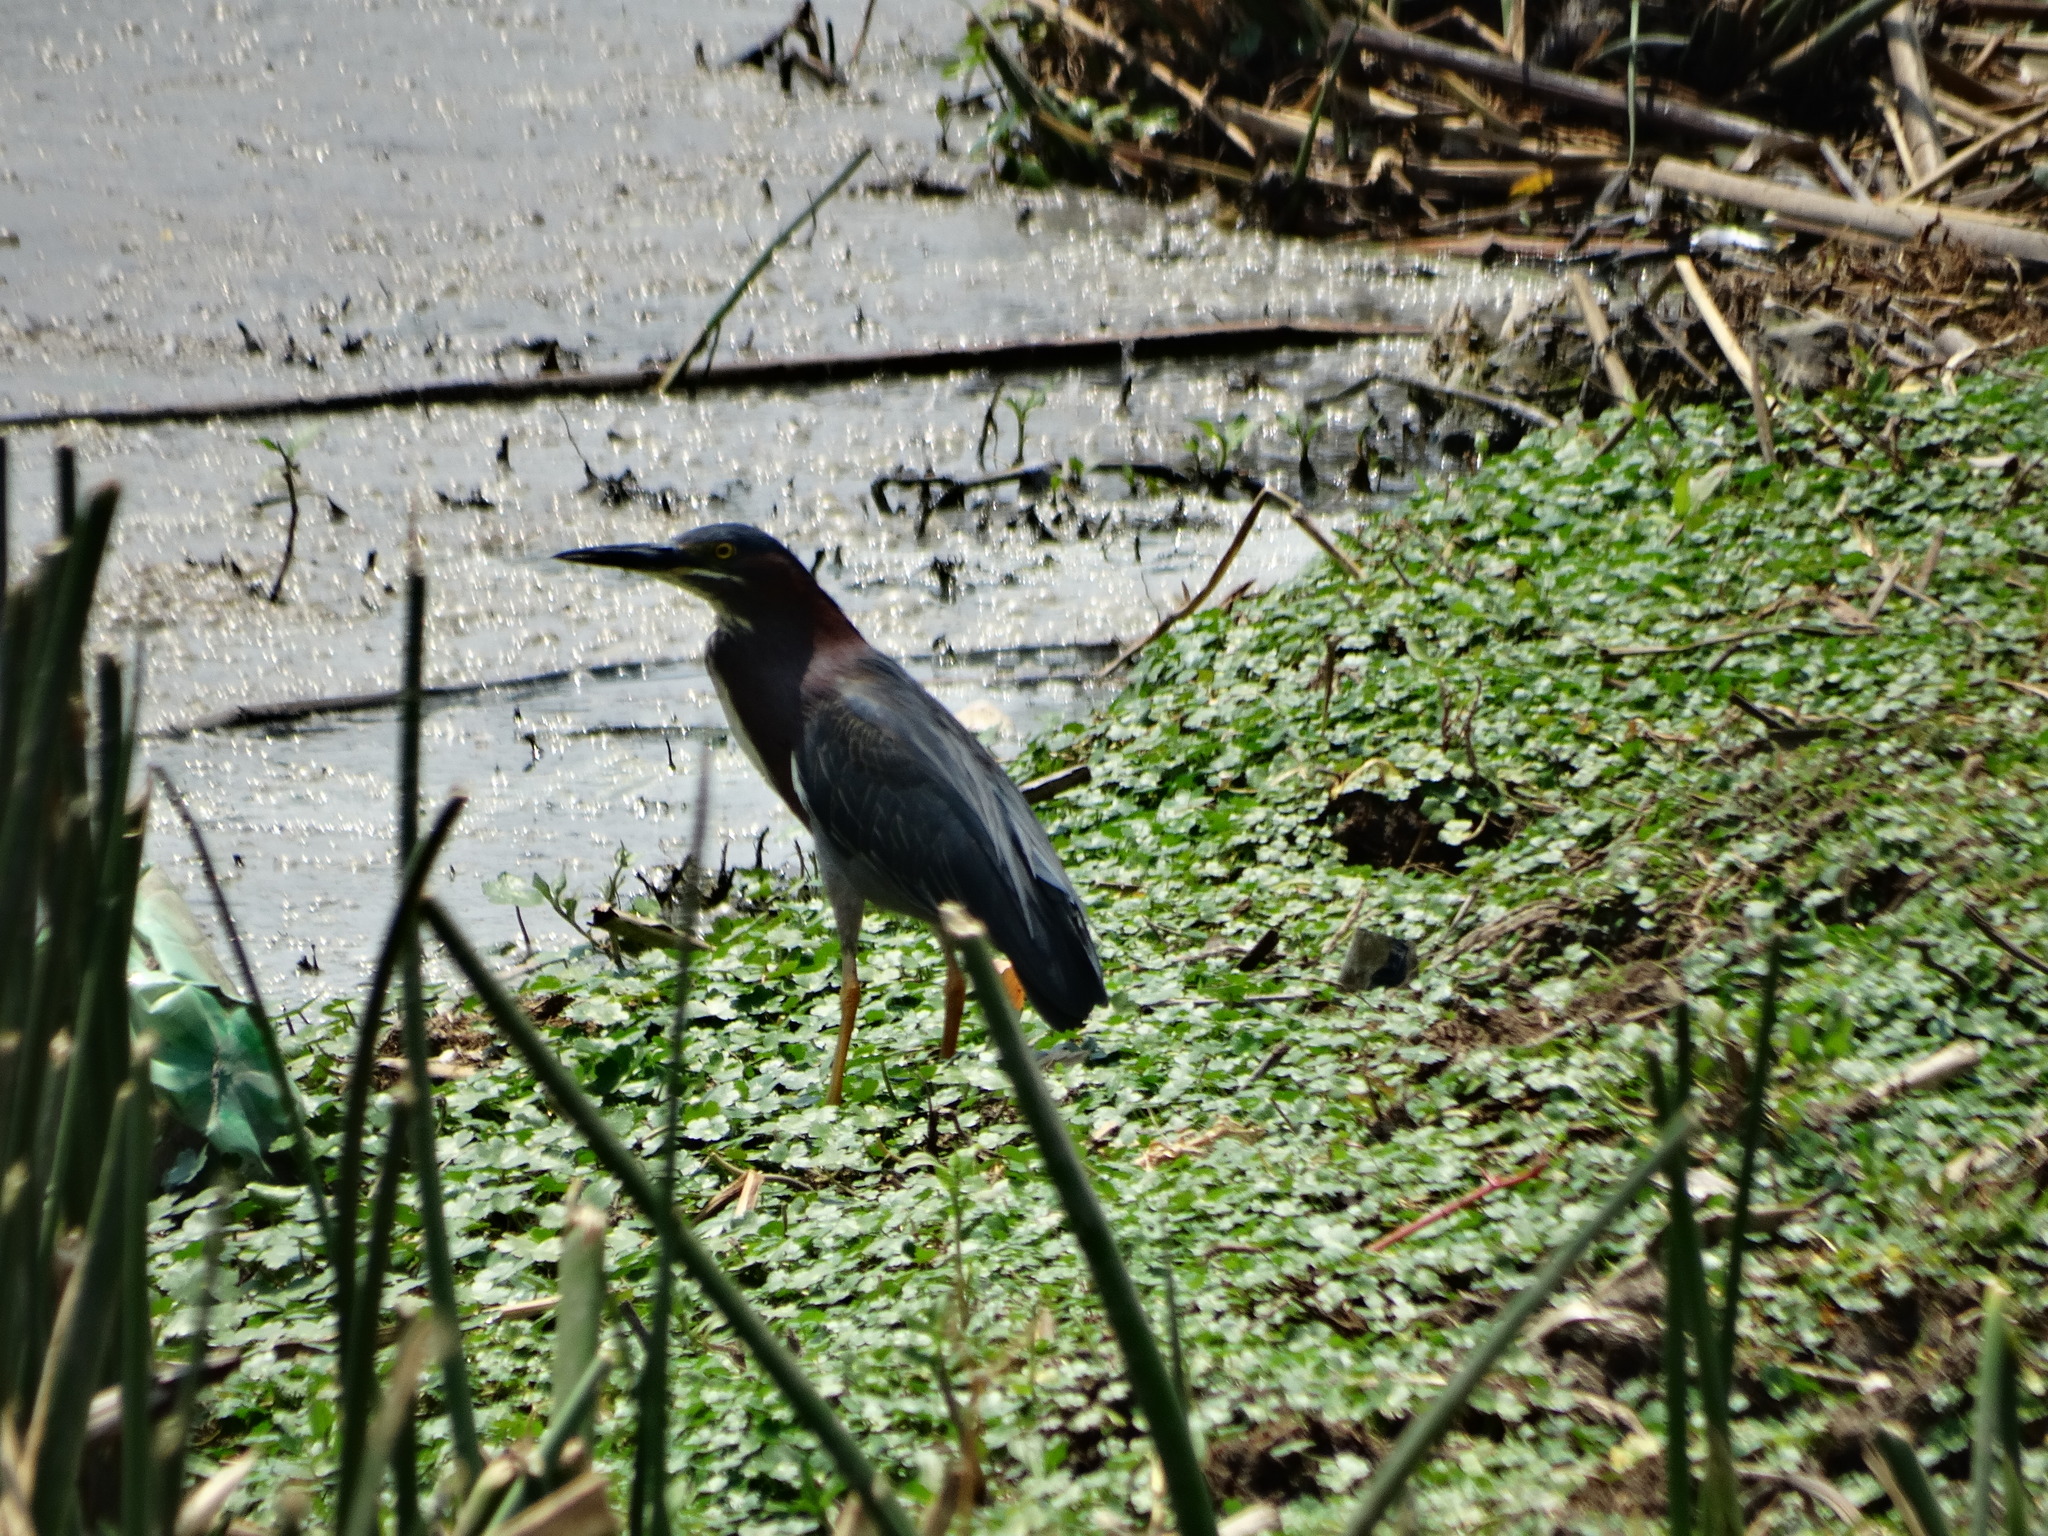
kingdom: Animalia
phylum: Chordata
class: Aves
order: Pelecaniformes
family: Ardeidae
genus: Butorides
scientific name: Butorides virescens
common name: Green heron
